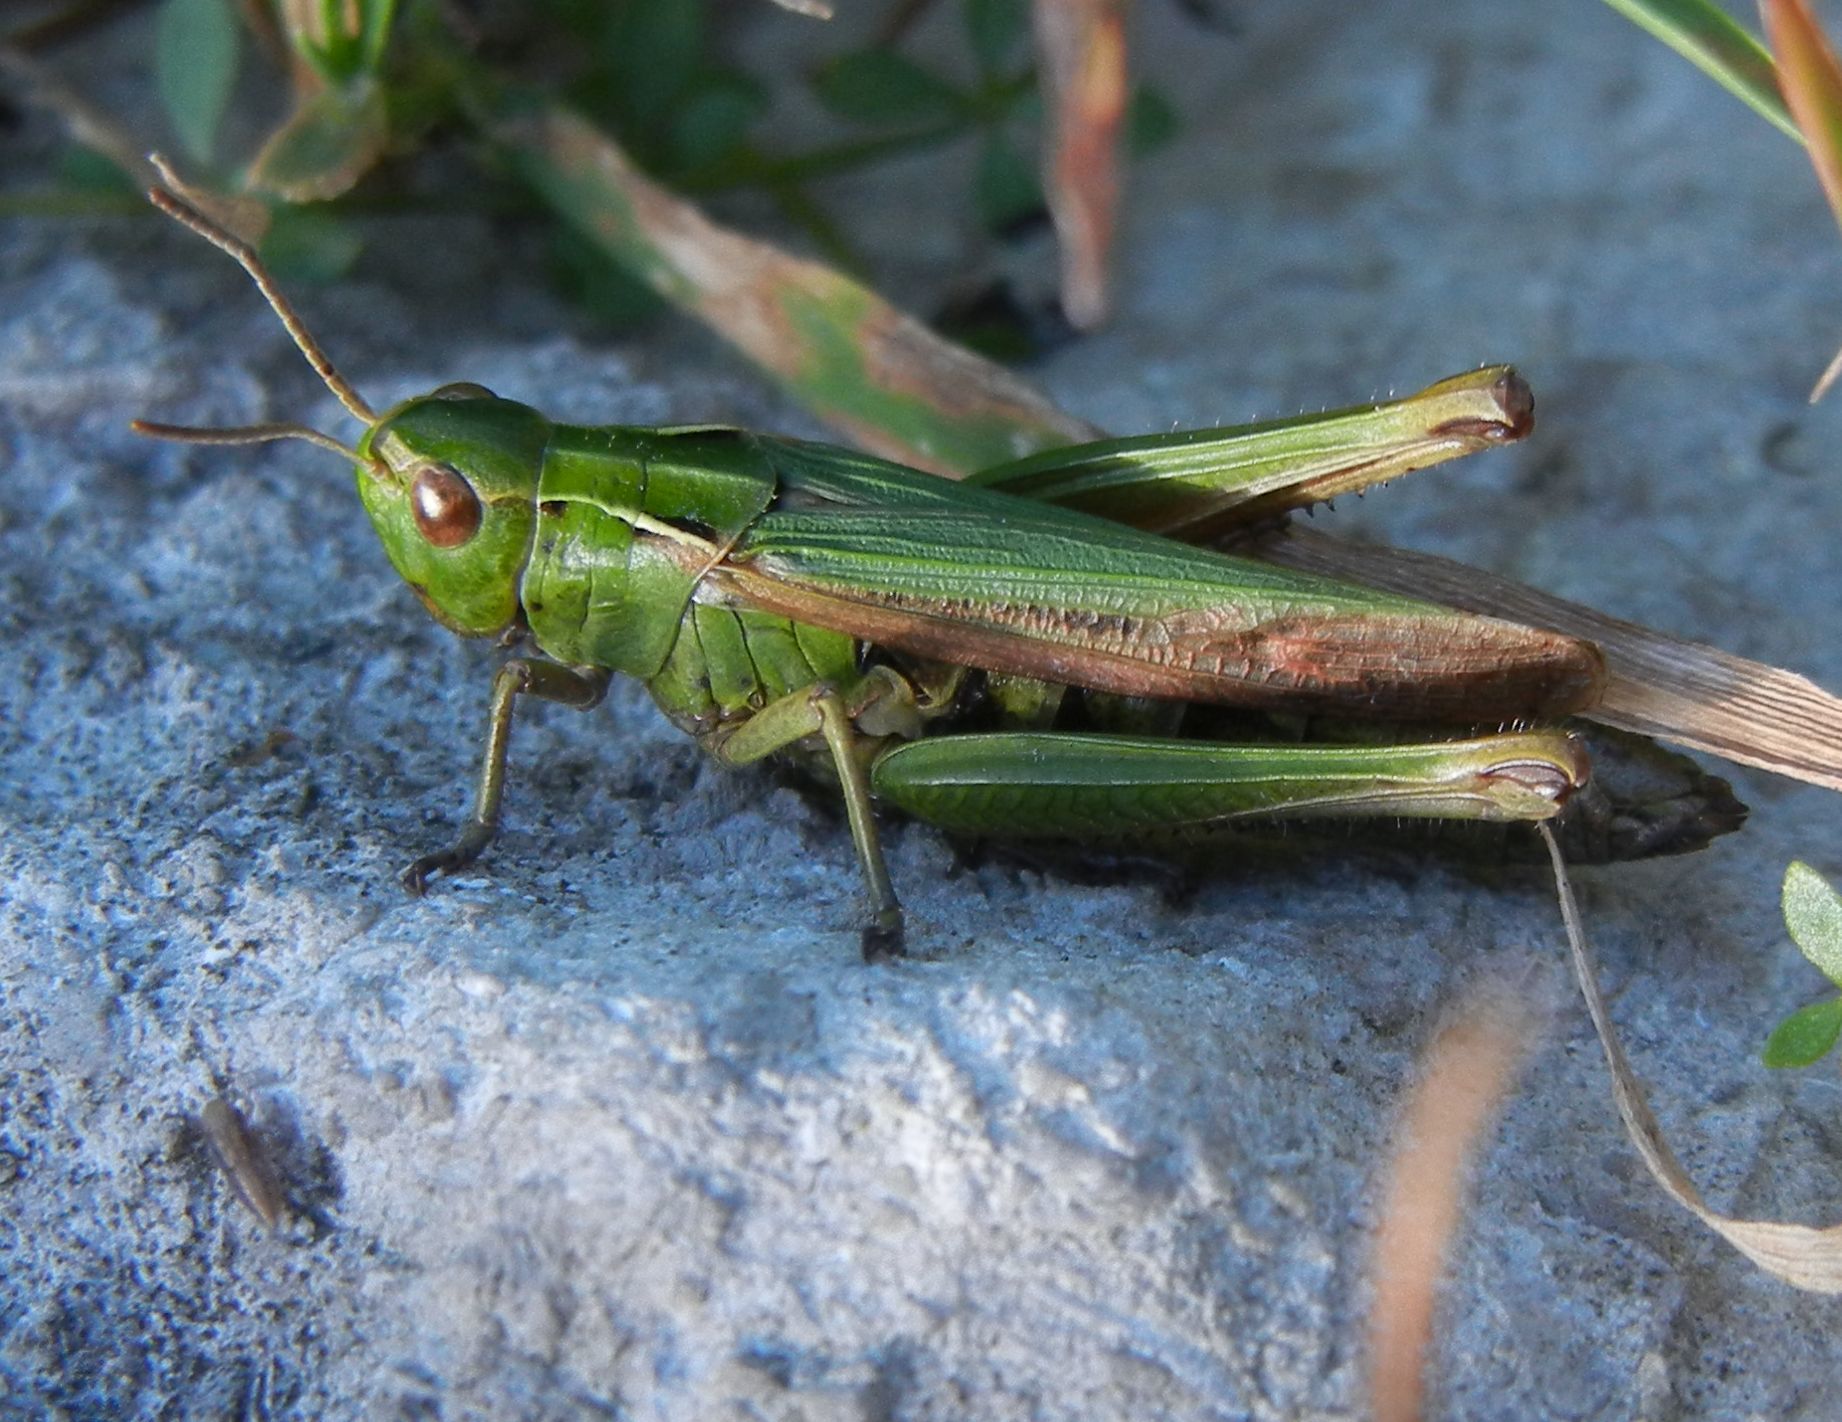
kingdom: Animalia
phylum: Arthropoda
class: Insecta
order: Orthoptera
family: Acrididae
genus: Omocestus
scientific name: Omocestus viridulus
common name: Common green grasshopper
